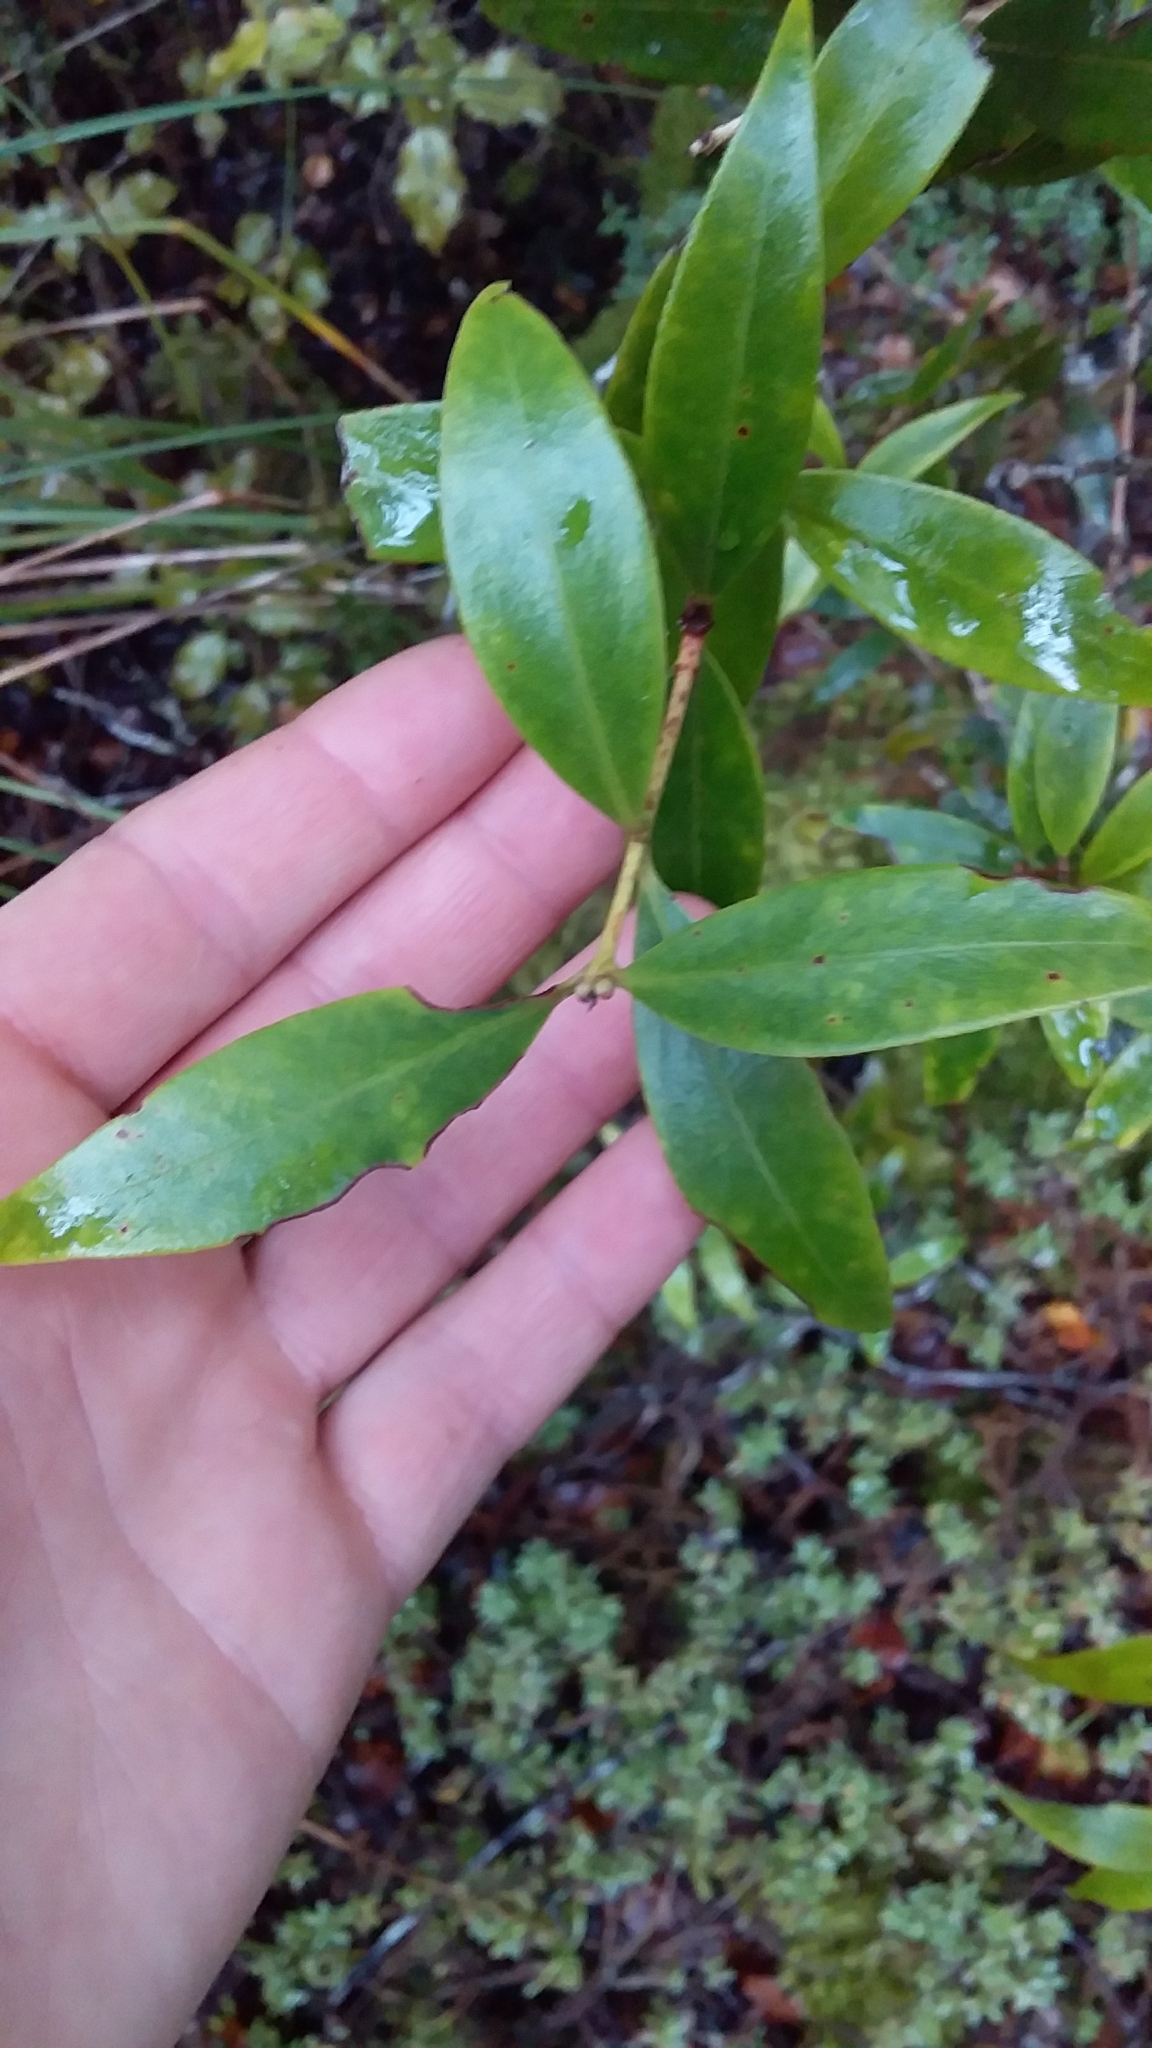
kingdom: Plantae
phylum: Tracheophyta
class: Magnoliopsida
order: Myrtales
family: Myrtaceae
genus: Metrosideros
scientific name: Metrosideros umbellata
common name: Southern rata
